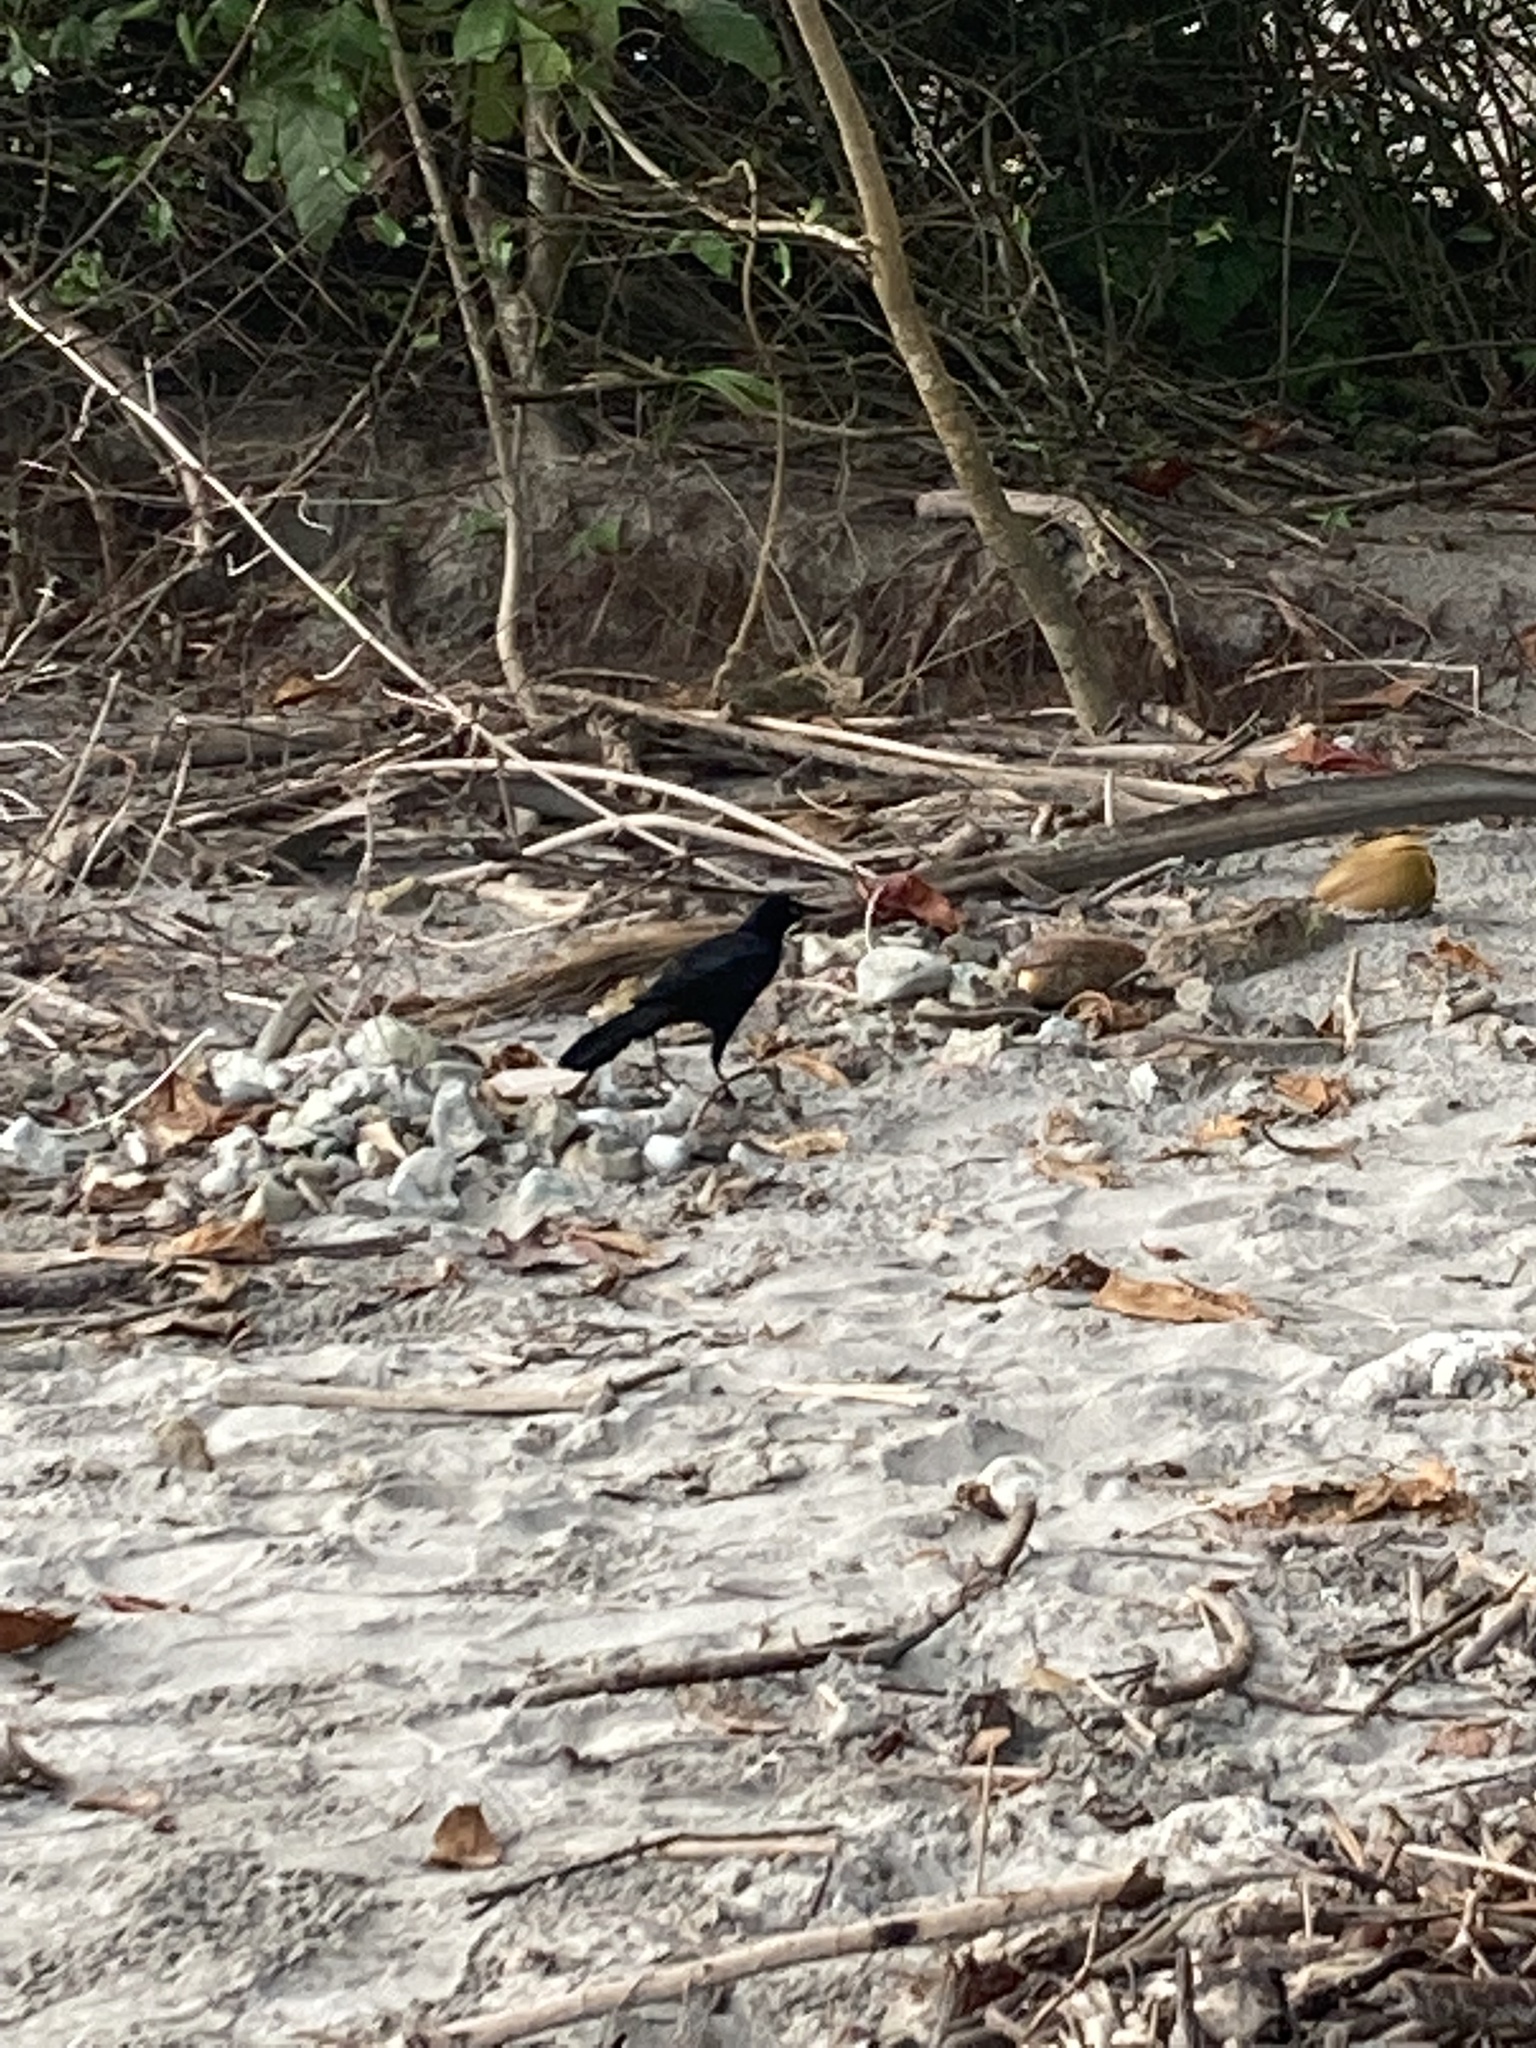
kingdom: Animalia
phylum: Chordata
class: Aves
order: Passeriformes
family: Icteridae
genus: Quiscalus
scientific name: Quiscalus mexicanus
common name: Great-tailed grackle
